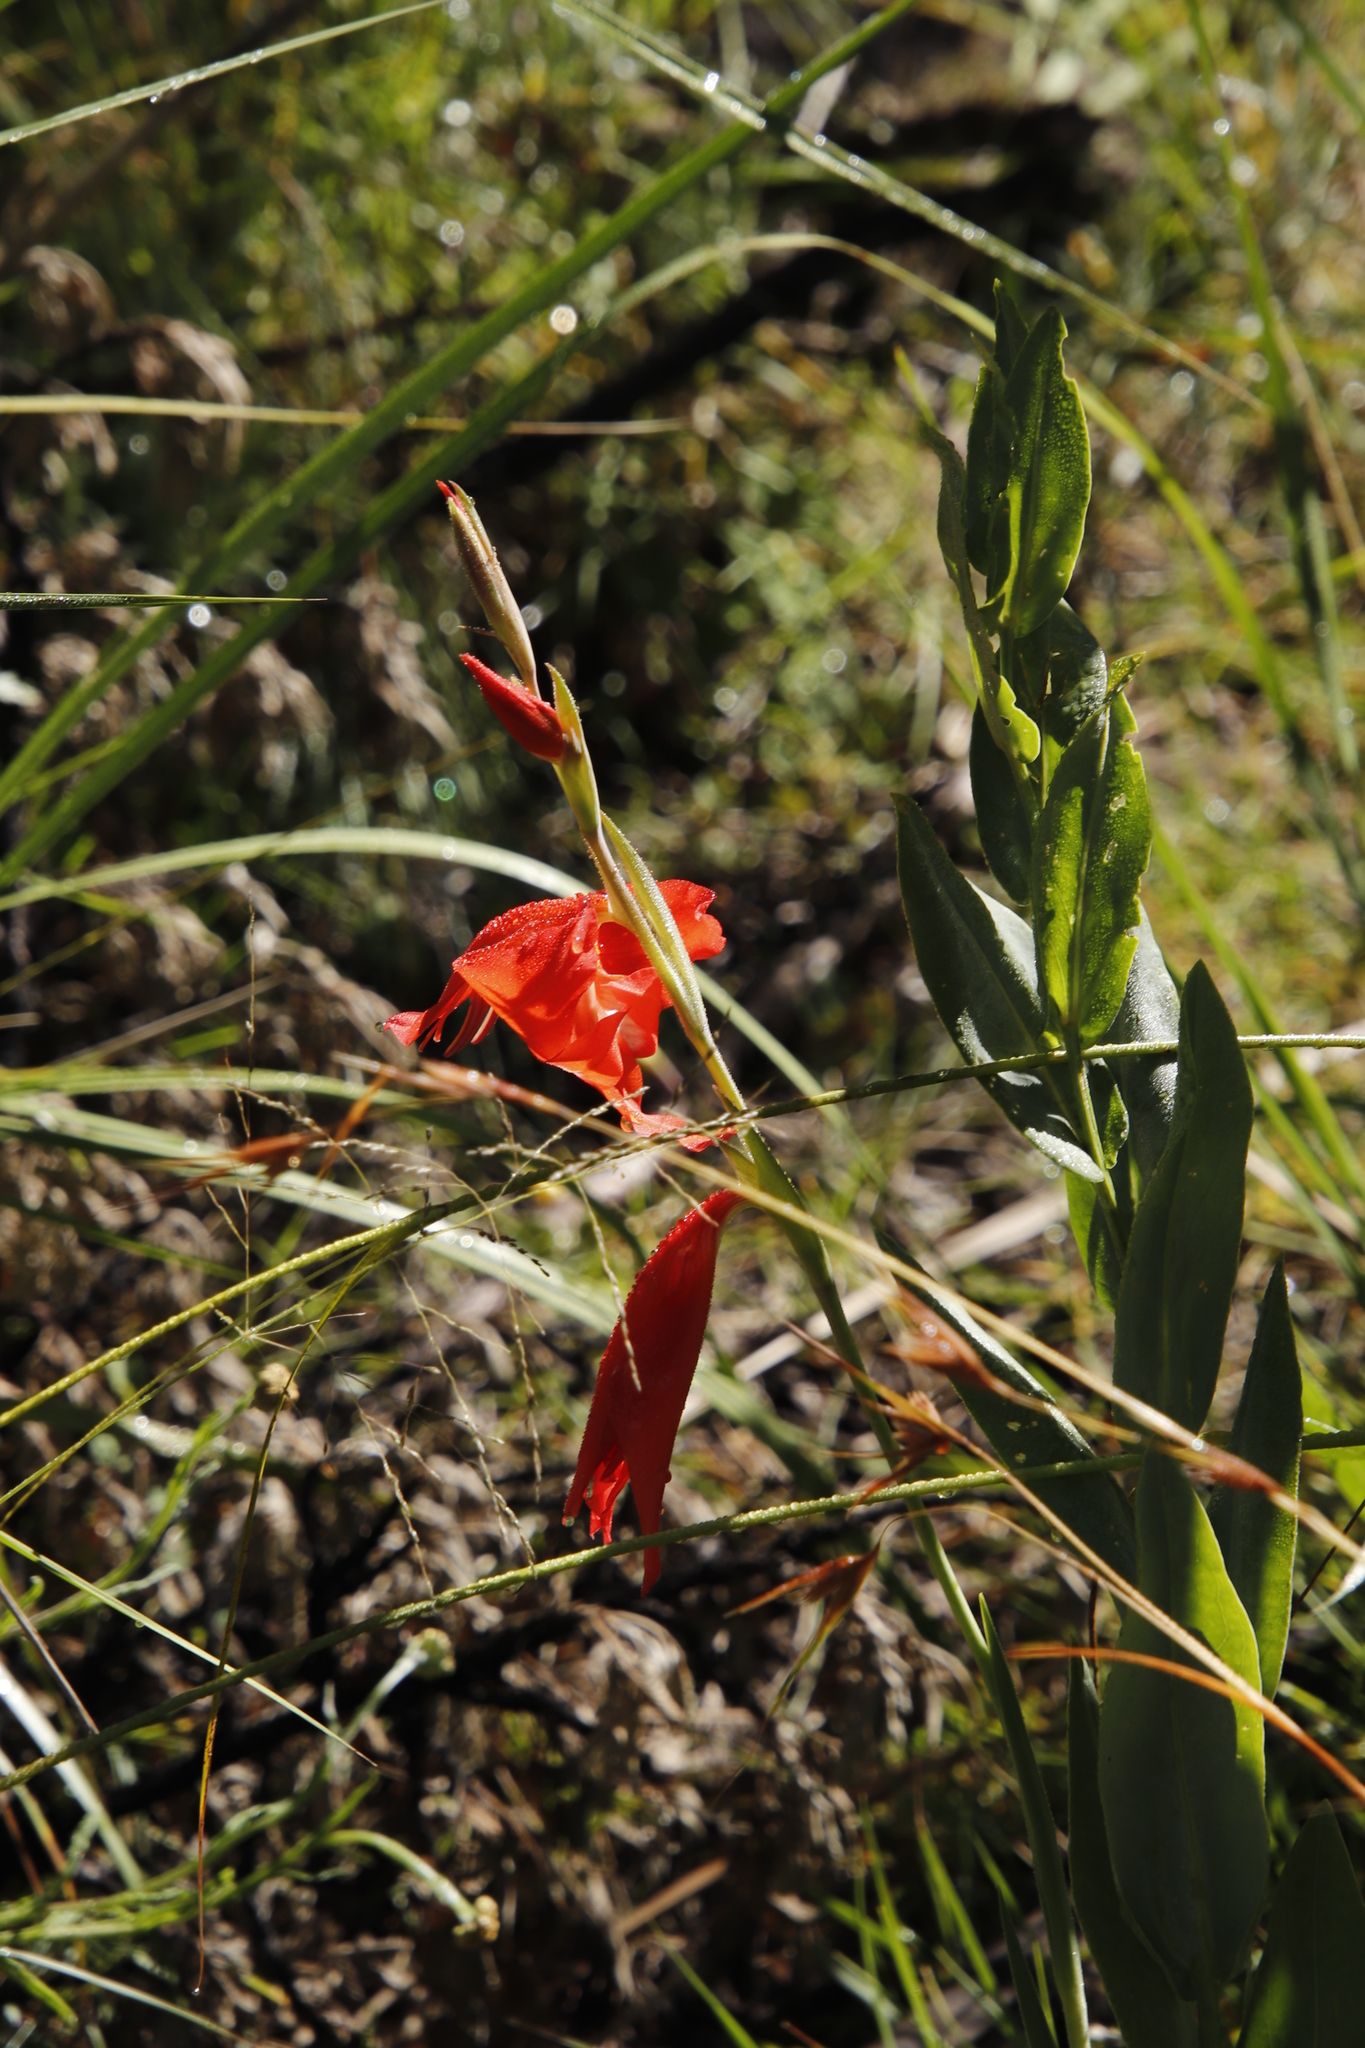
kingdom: Plantae
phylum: Tracheophyta
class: Liliopsida
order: Asparagales
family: Iridaceae
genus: Gladiolus
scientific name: Gladiolus saundersii
